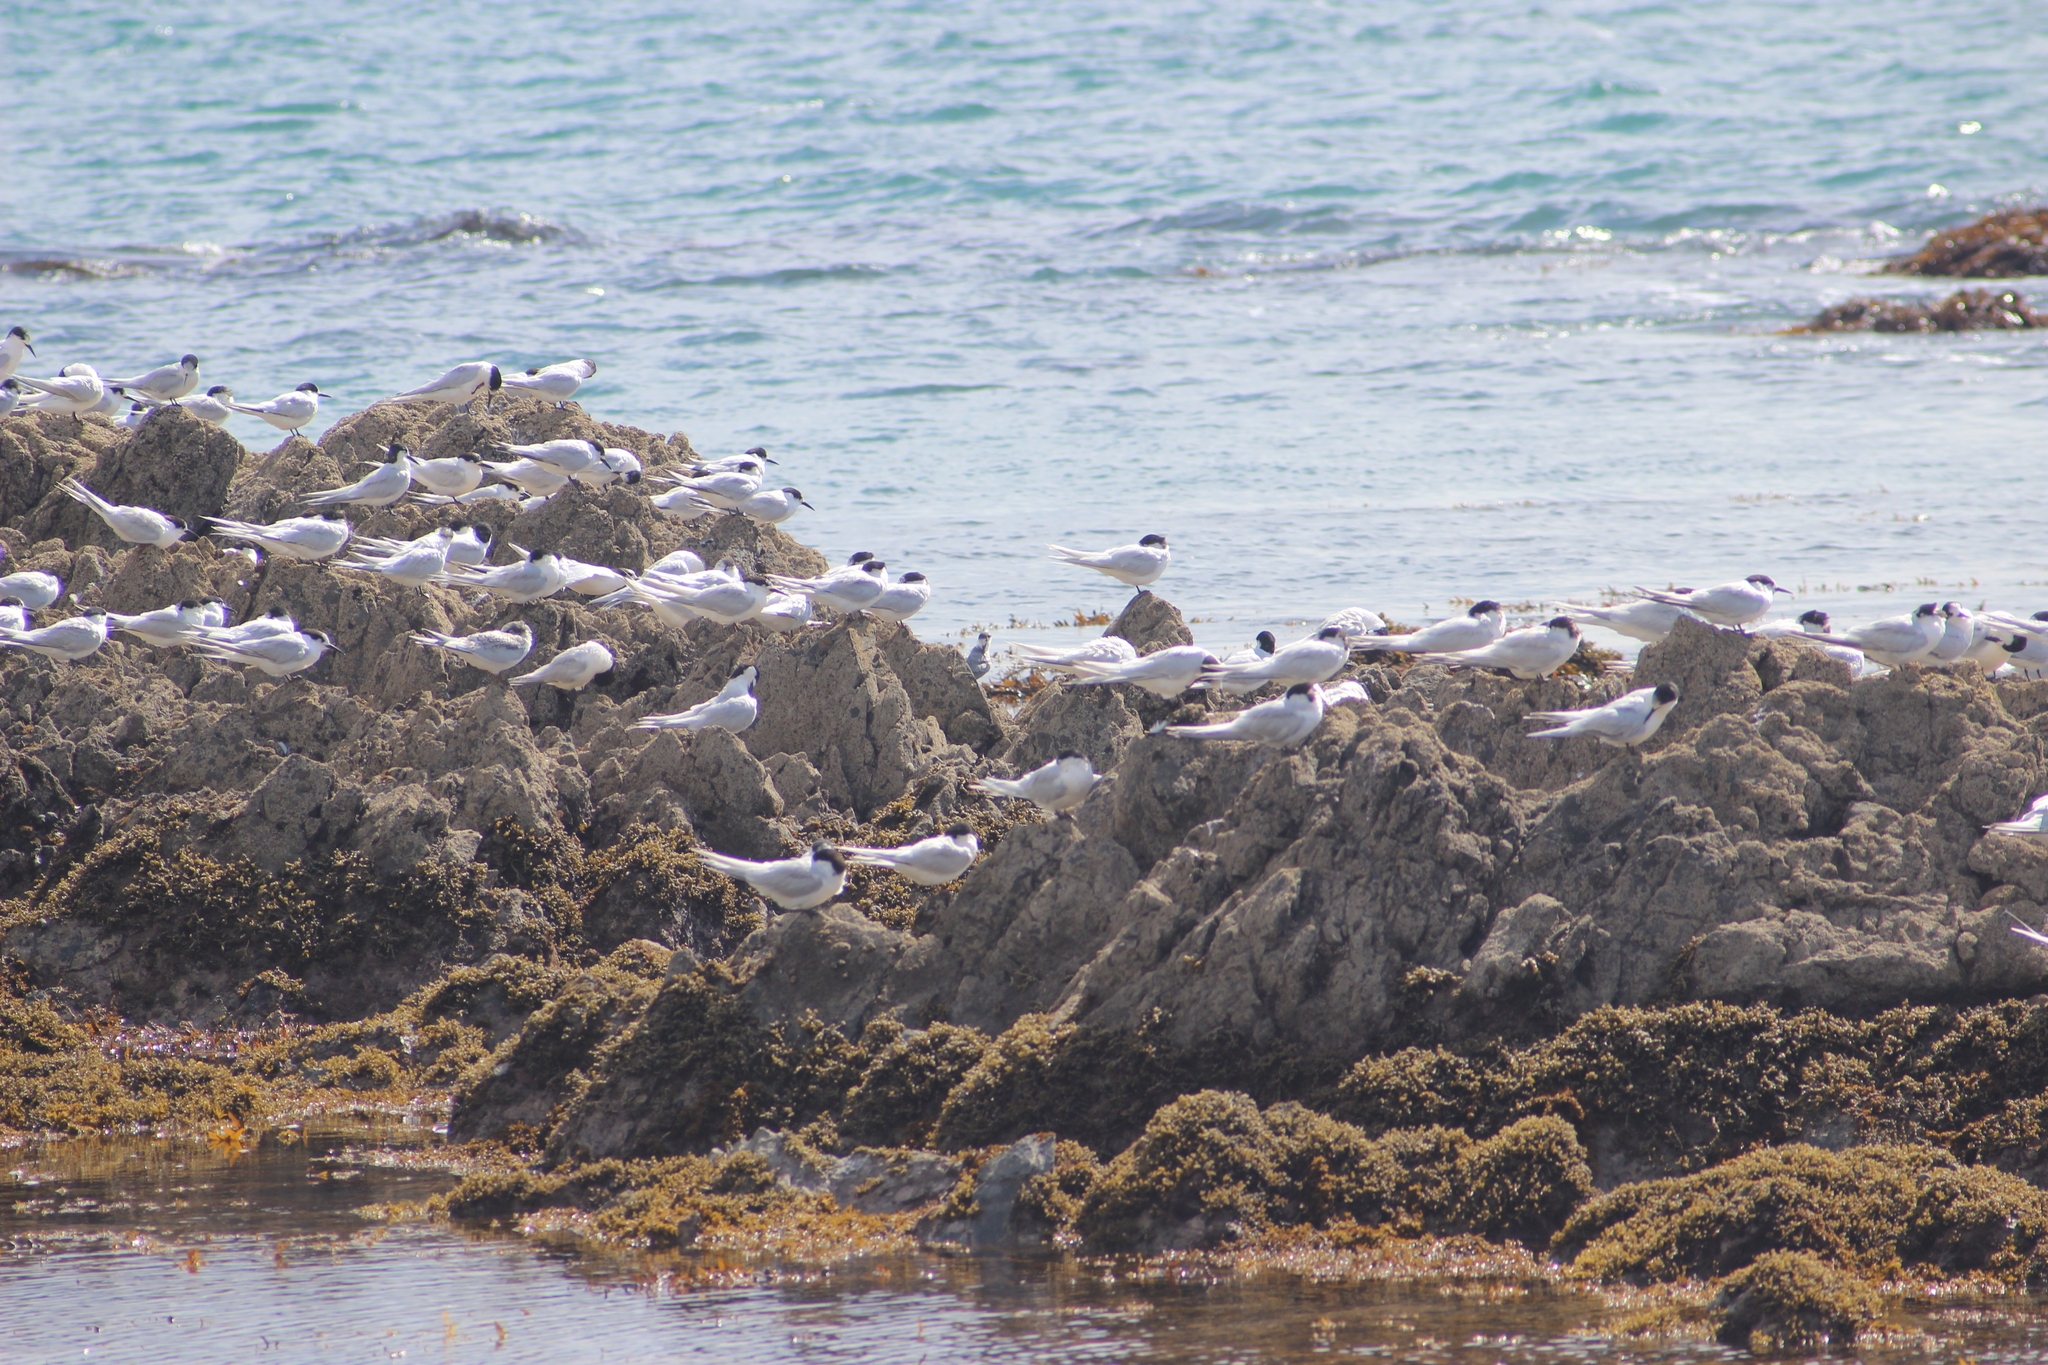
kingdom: Animalia
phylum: Chordata
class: Aves
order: Charadriiformes
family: Laridae
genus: Sterna
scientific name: Sterna striata
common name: White-fronted tern
